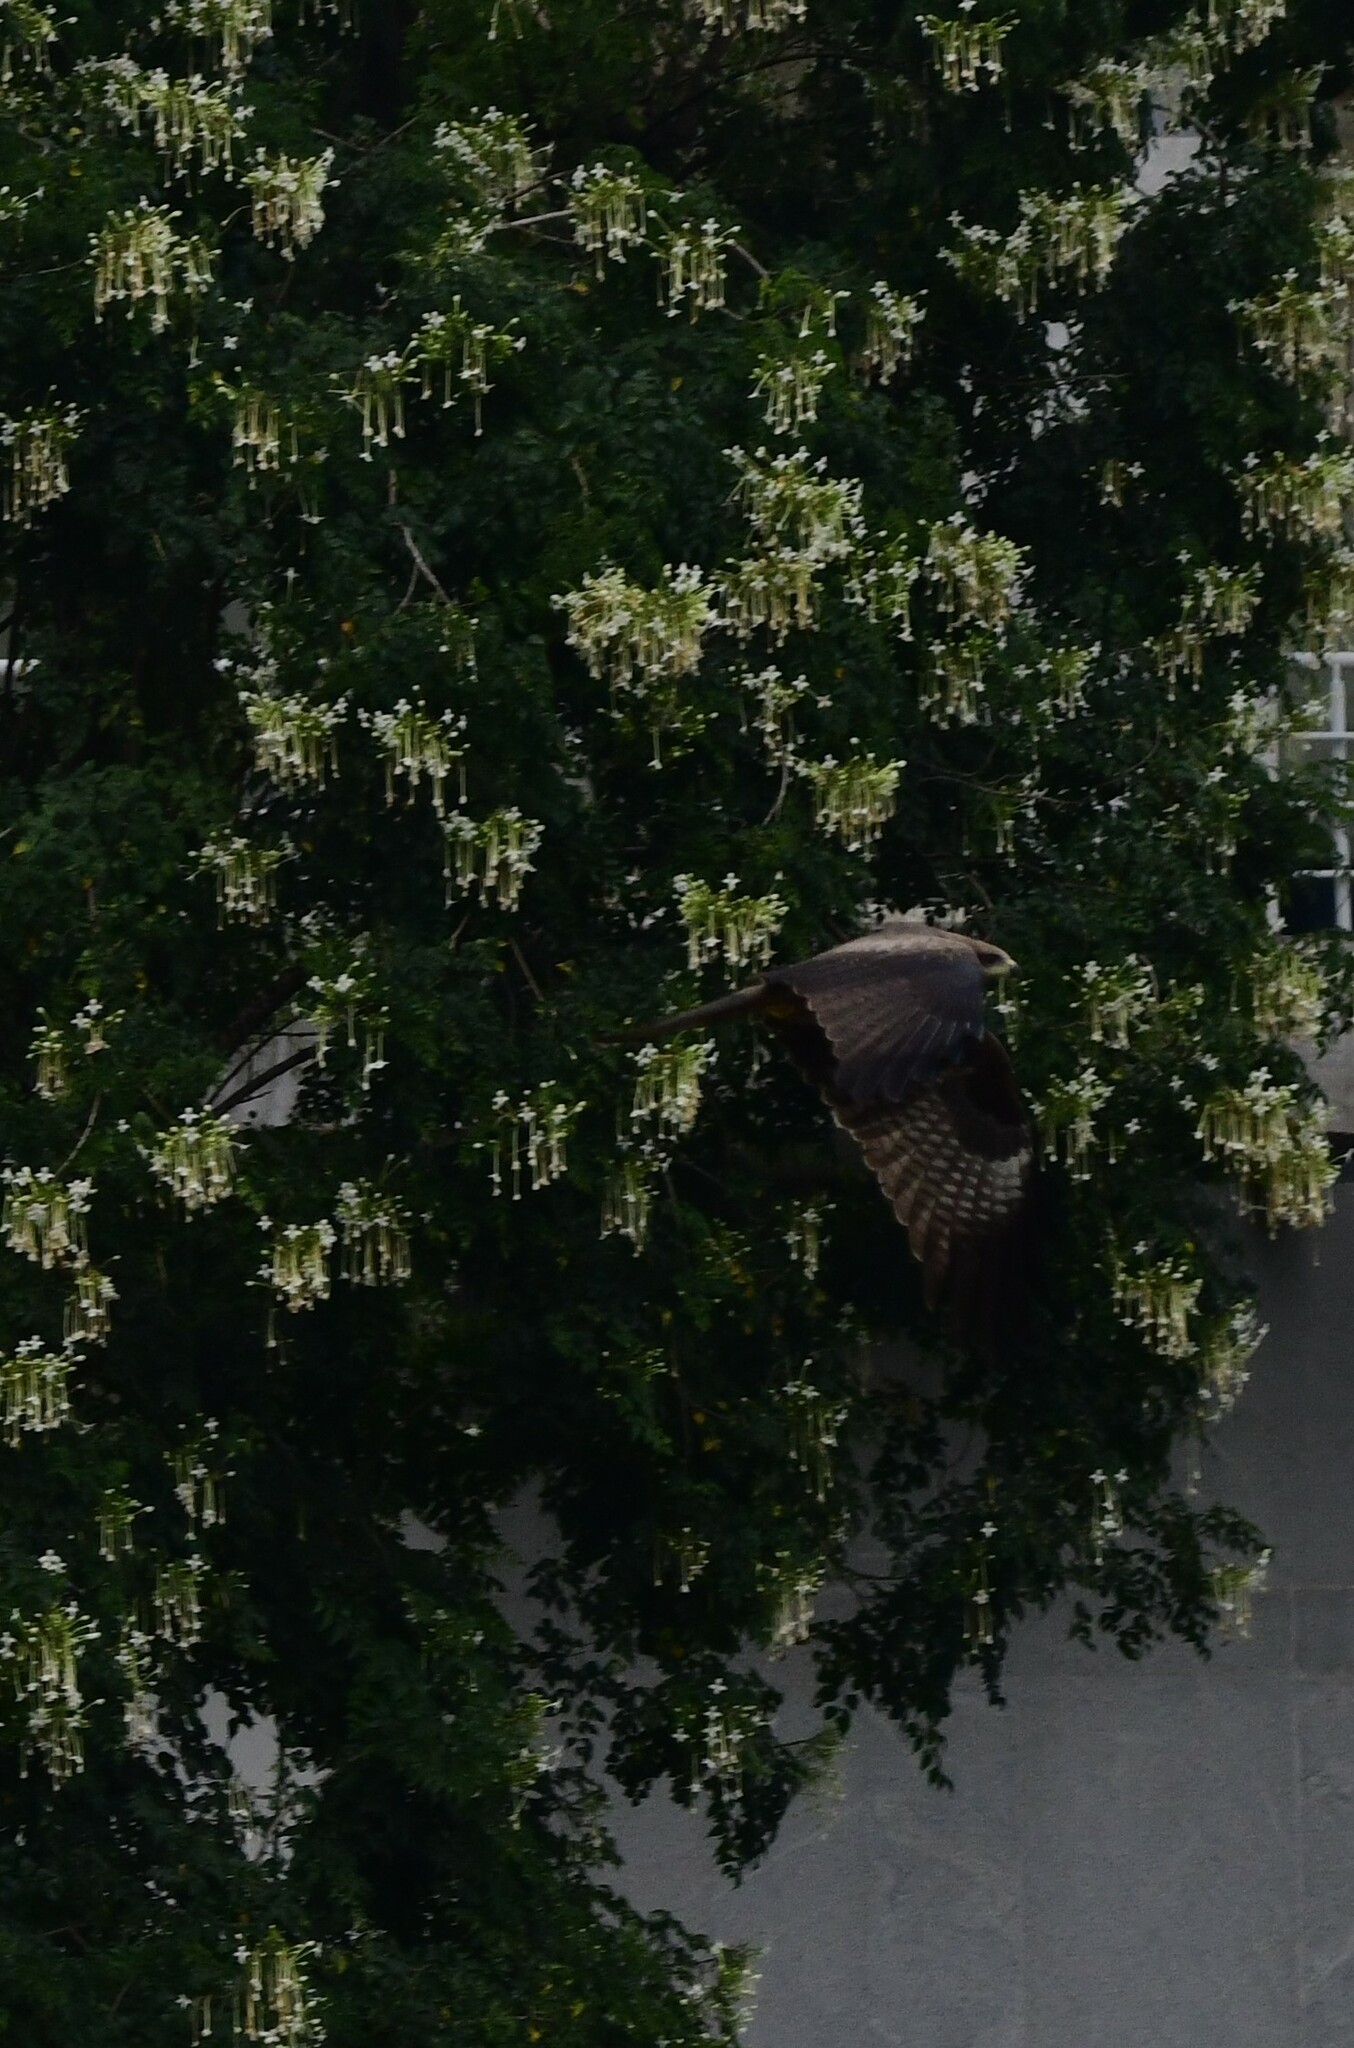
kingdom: Animalia
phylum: Chordata
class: Aves
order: Accipitriformes
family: Accipitridae
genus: Milvus
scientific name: Milvus migrans
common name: Black kite
